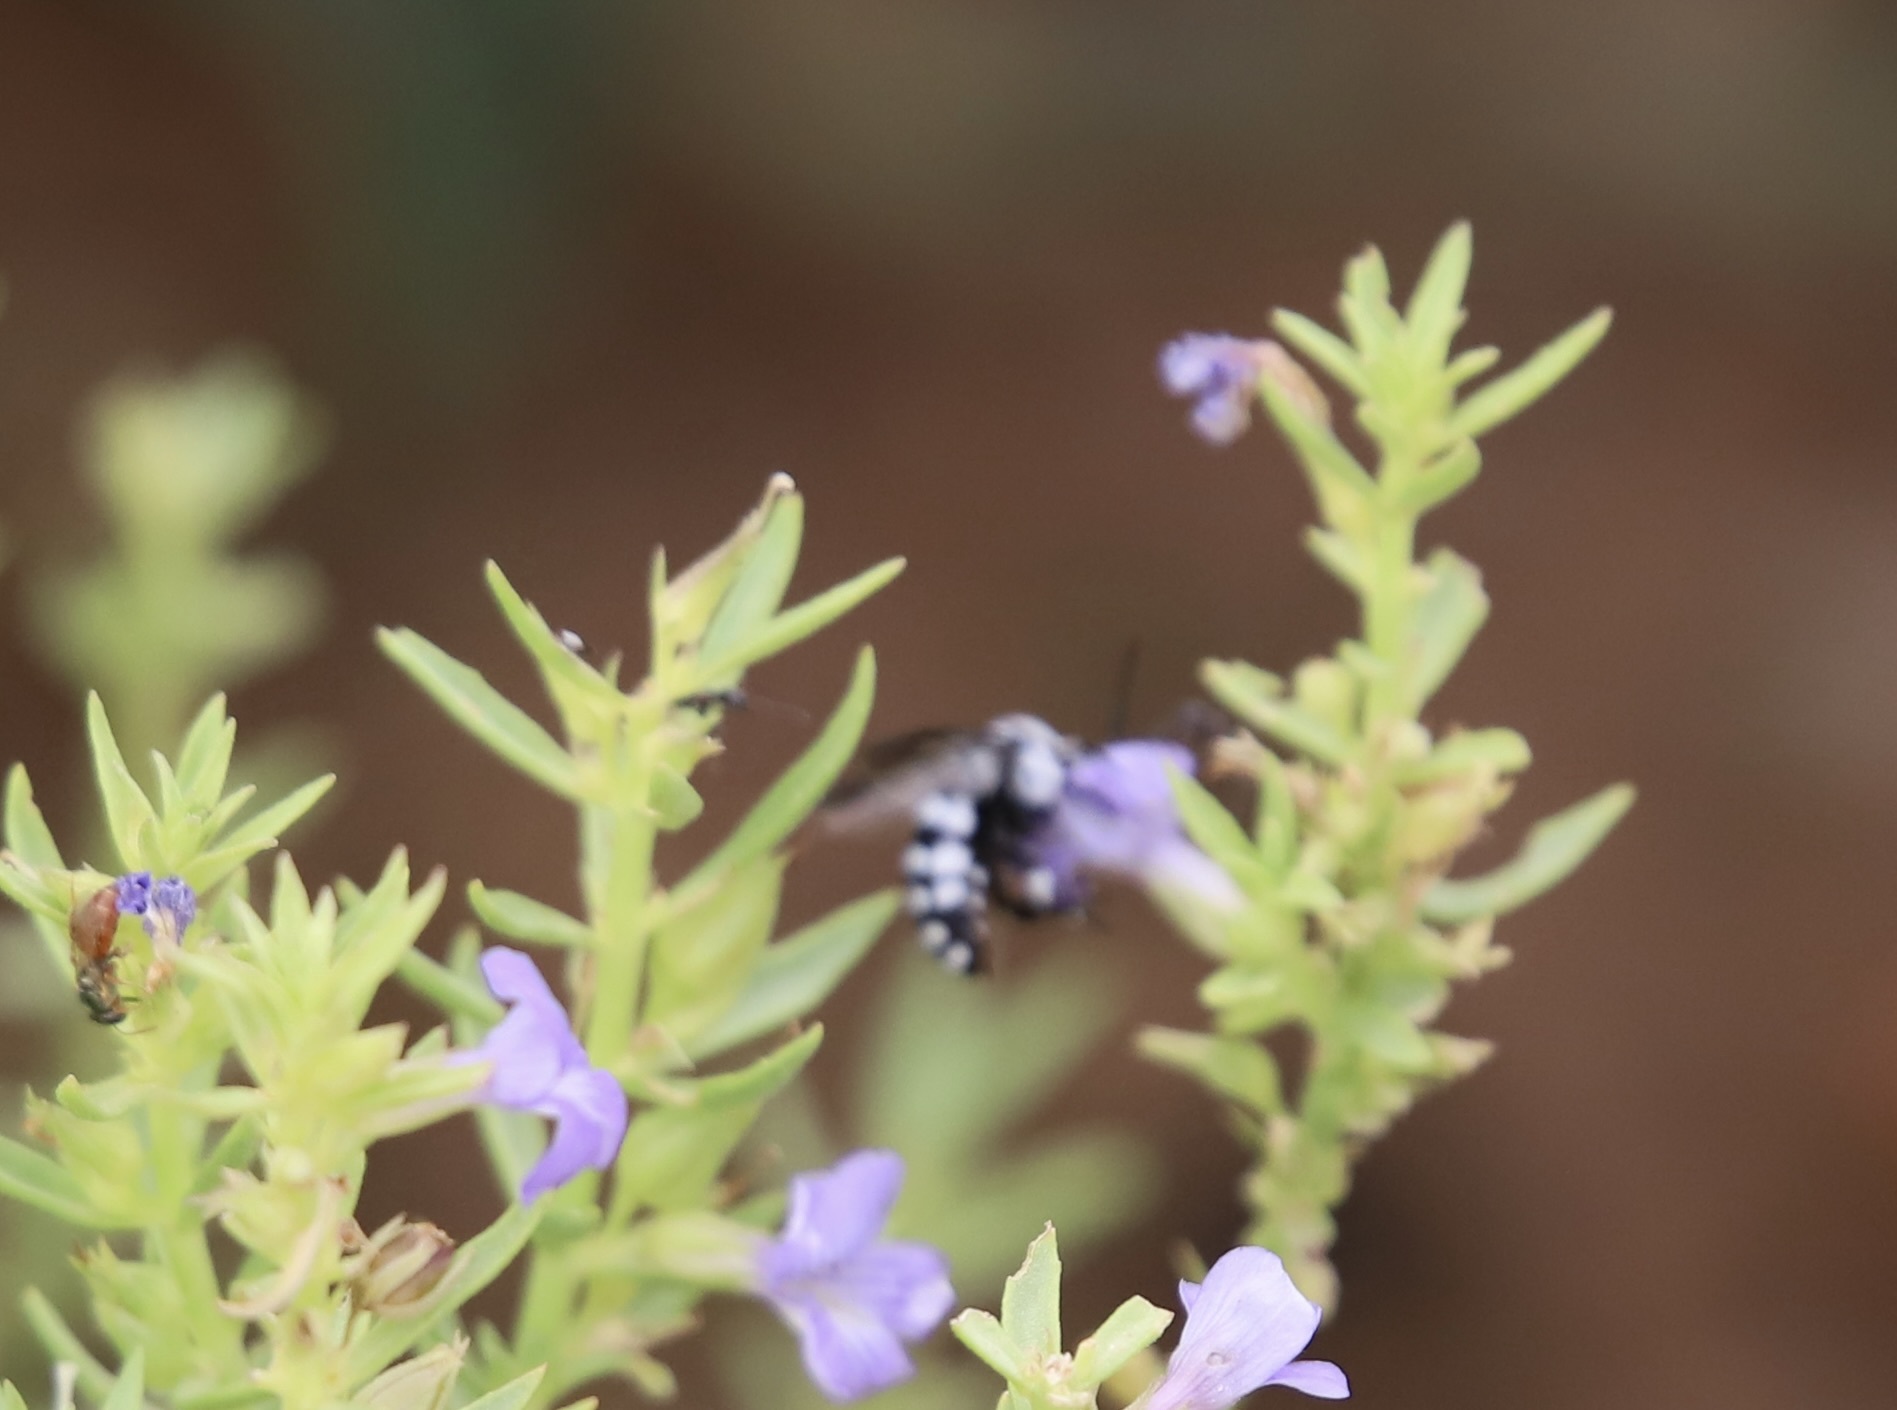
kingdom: Animalia
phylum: Arthropoda
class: Insecta
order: Hymenoptera
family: Apidae
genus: Thyreus
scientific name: Thyreus waroonensis
